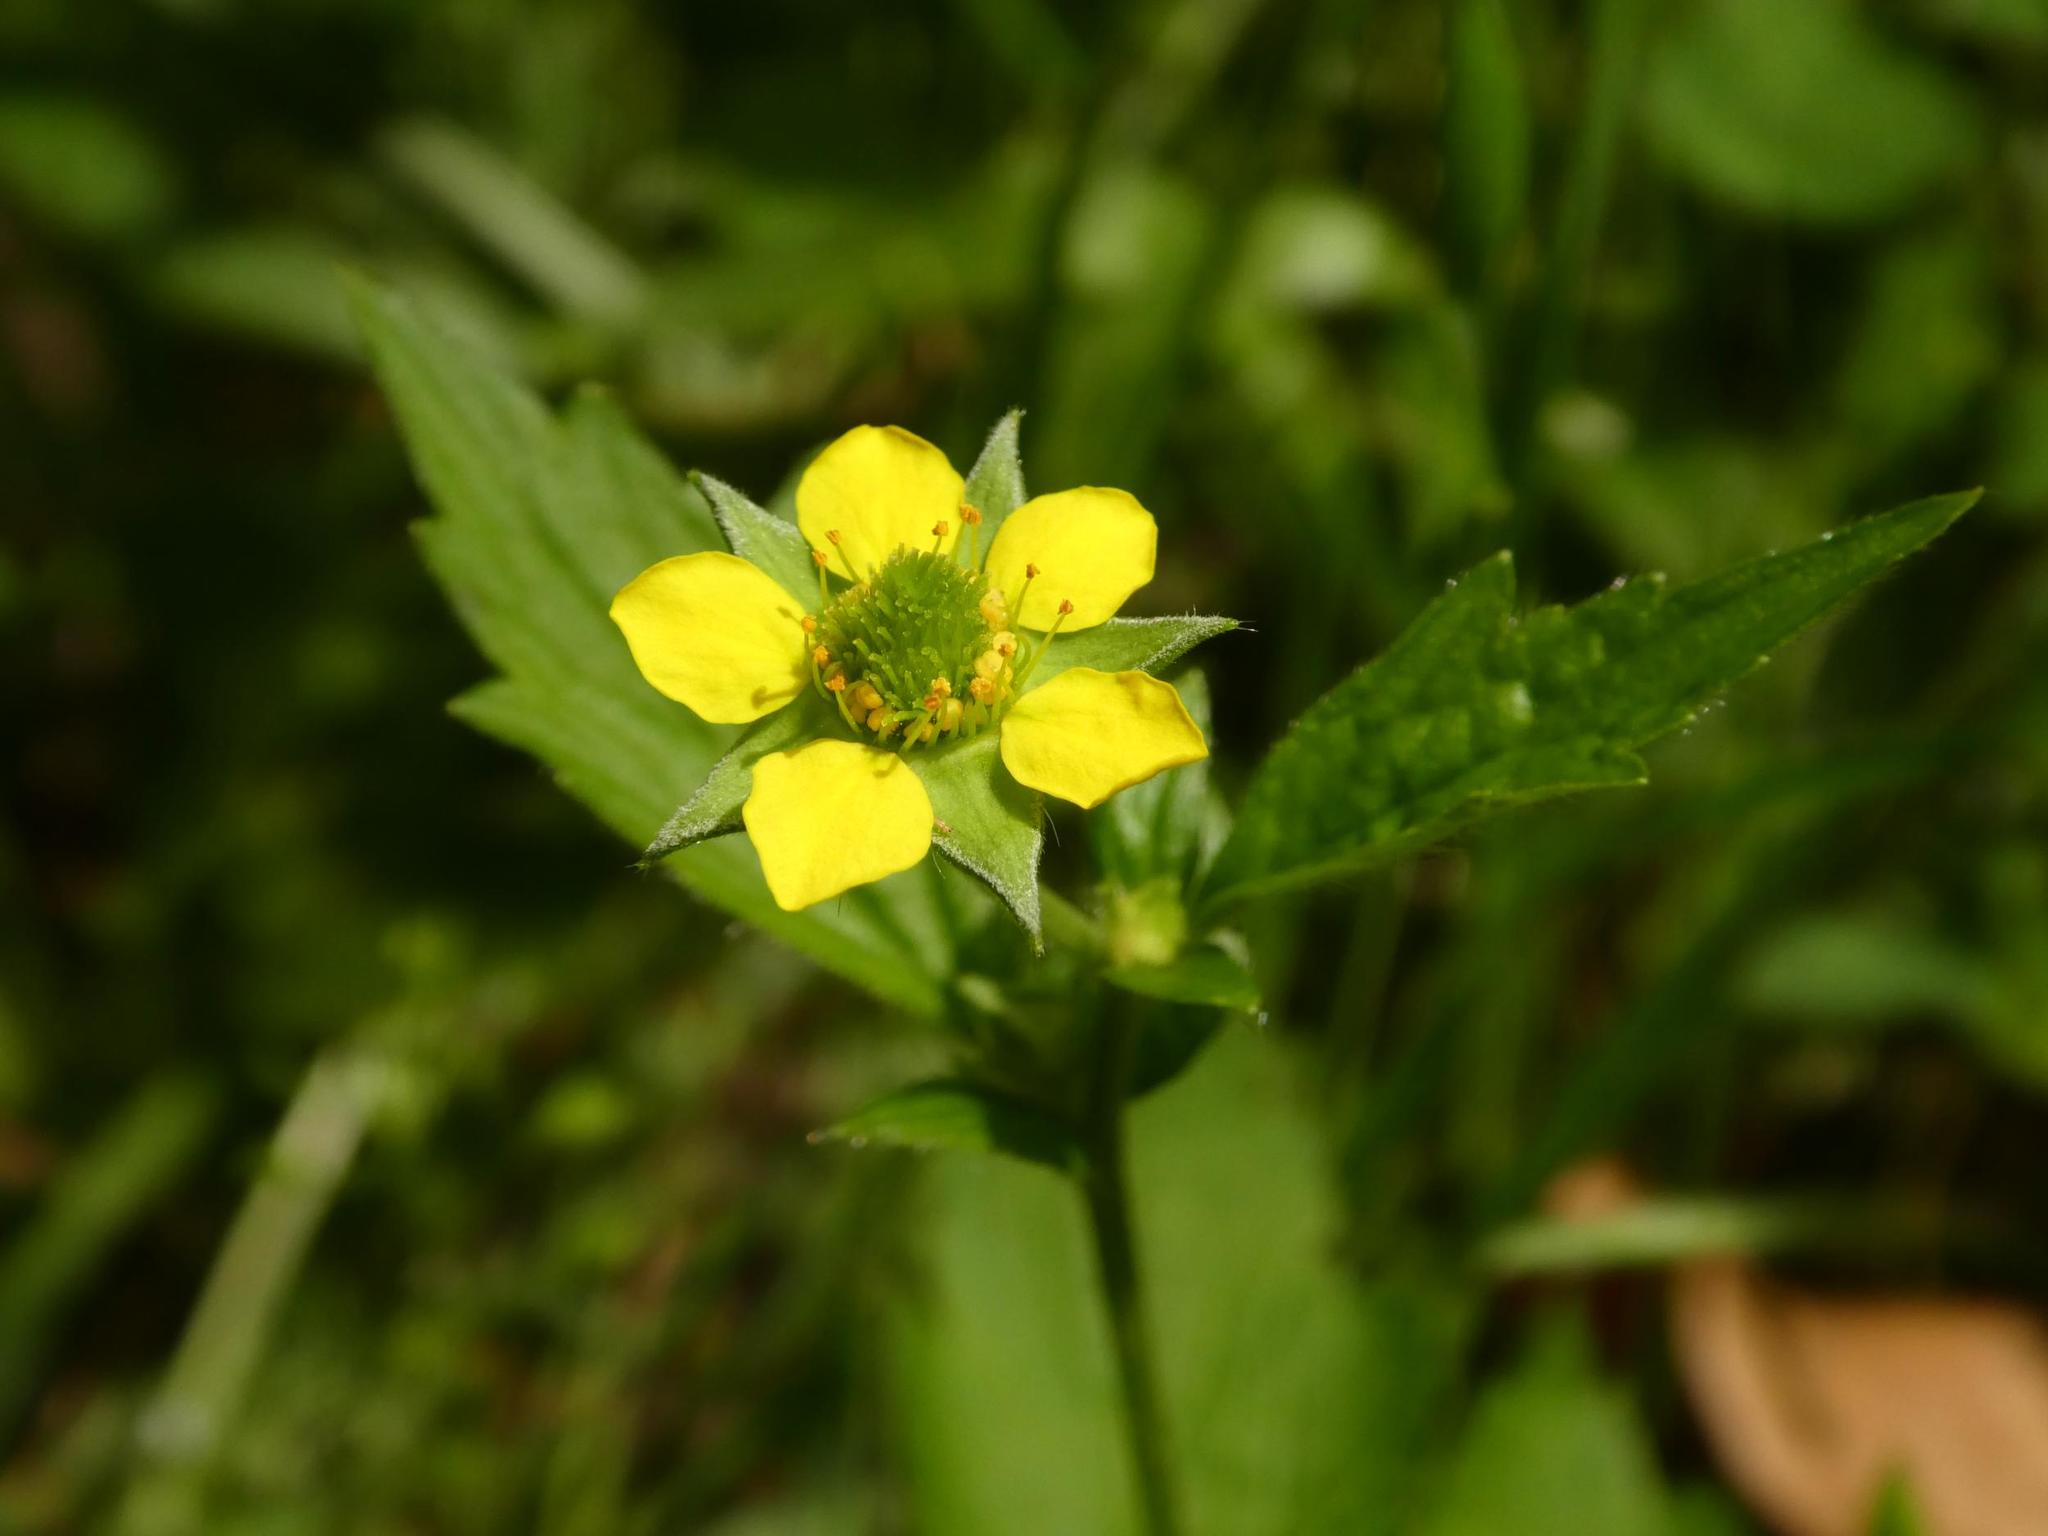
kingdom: Plantae
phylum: Tracheophyta
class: Magnoliopsida
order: Rosales
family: Rosaceae
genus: Geum
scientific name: Geum urbanum
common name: Wood avens
